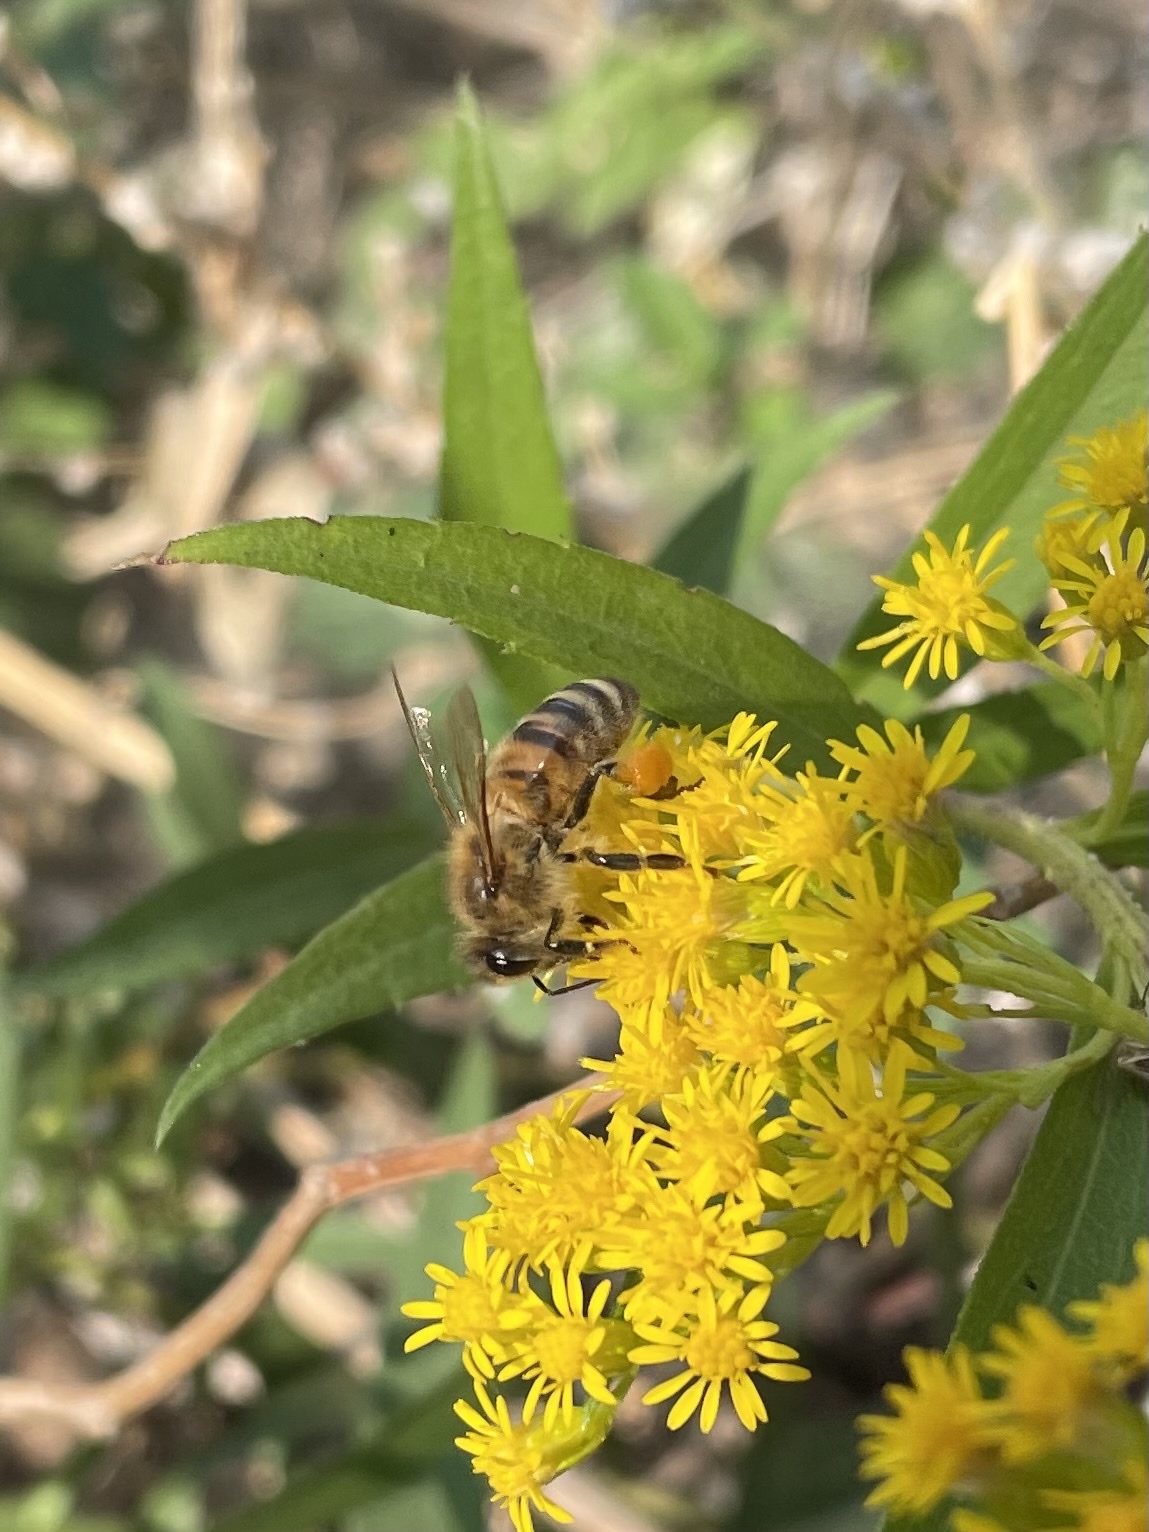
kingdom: Animalia
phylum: Arthropoda
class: Insecta
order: Hymenoptera
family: Apidae
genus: Apis
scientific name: Apis mellifera
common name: Honey bee
